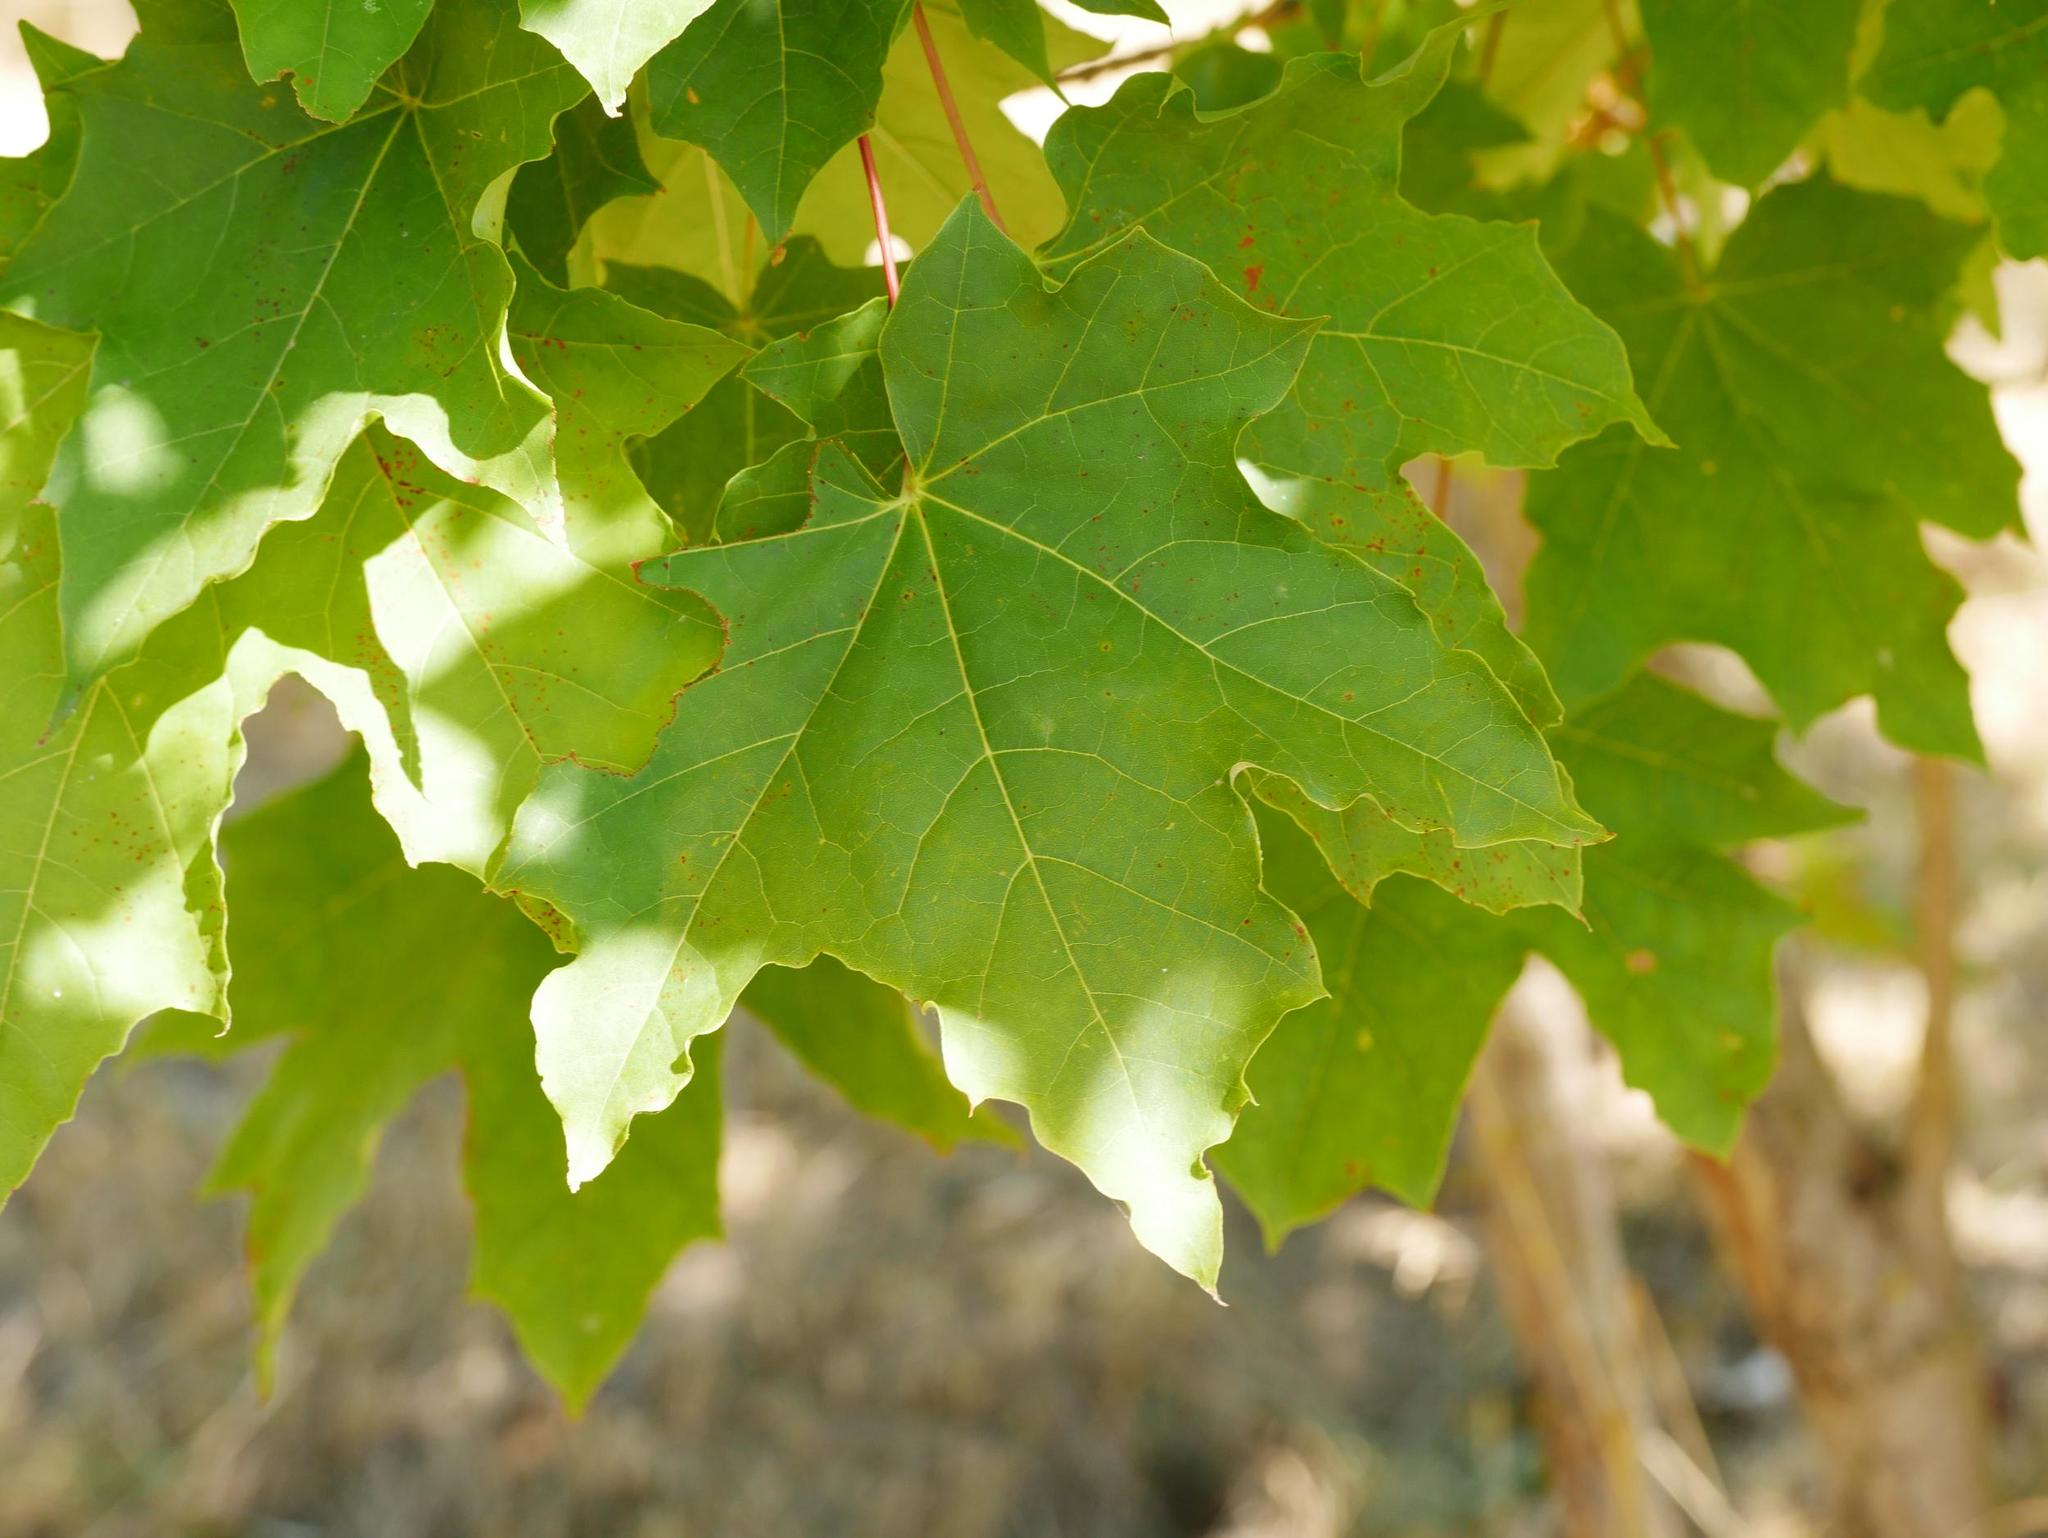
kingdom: Plantae
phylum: Tracheophyta
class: Magnoliopsida
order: Sapindales
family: Sapindaceae
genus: Acer
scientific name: Acer platanoides
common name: Norway maple
